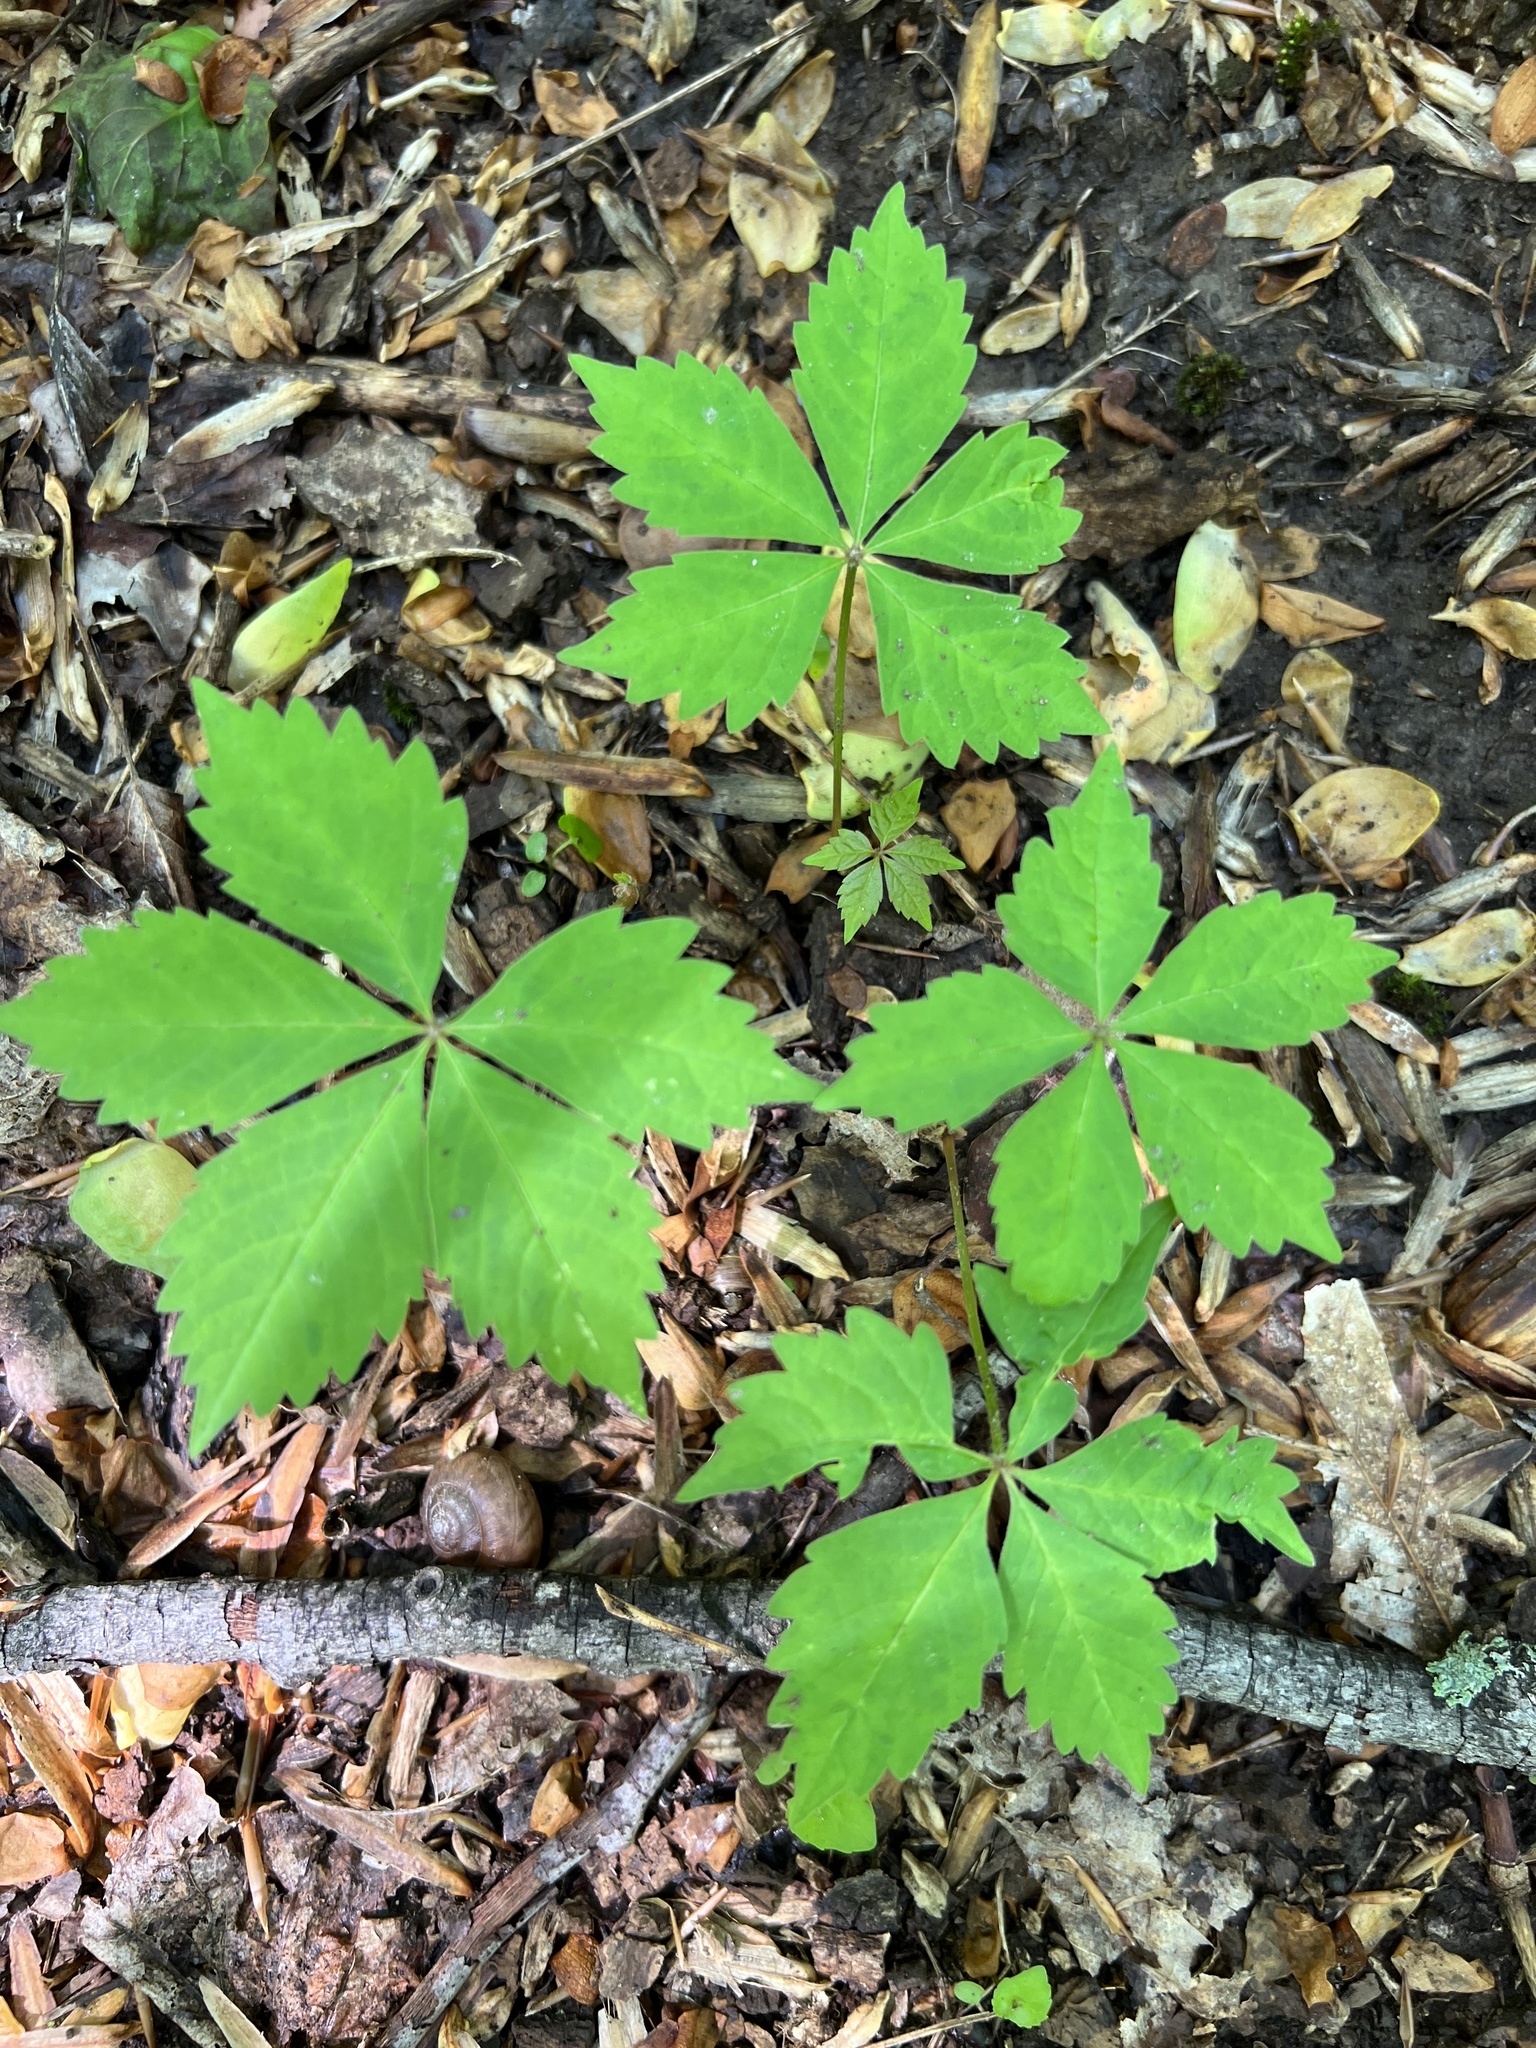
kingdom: Plantae
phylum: Tracheophyta
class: Magnoliopsida
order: Vitales
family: Vitaceae
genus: Parthenocissus
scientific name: Parthenocissus quinquefolia
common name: Virginia-creeper
